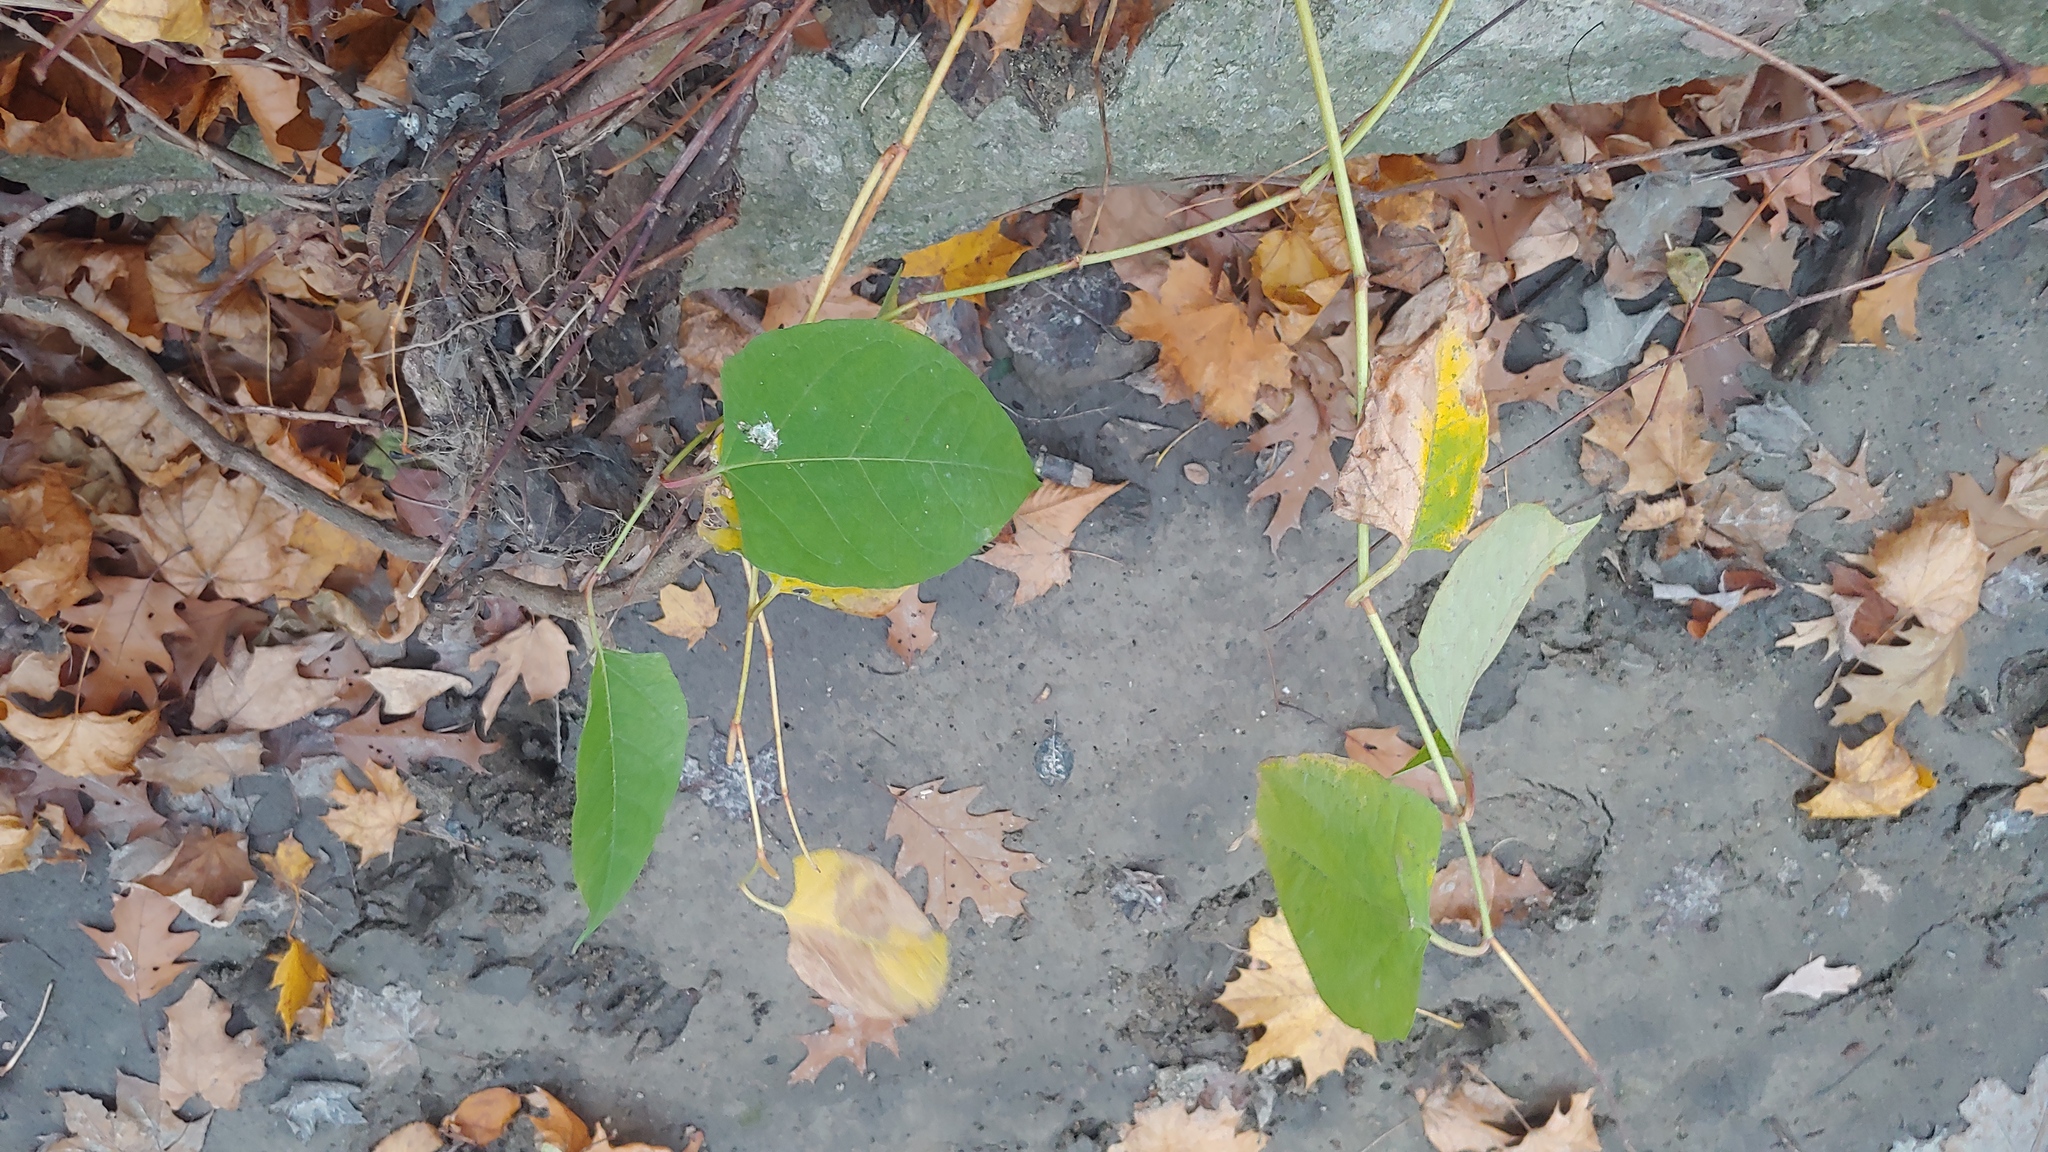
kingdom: Plantae
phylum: Tracheophyta
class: Magnoliopsida
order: Caryophyllales
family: Polygonaceae
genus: Reynoutria
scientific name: Reynoutria japonica
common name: Japanese knotweed
